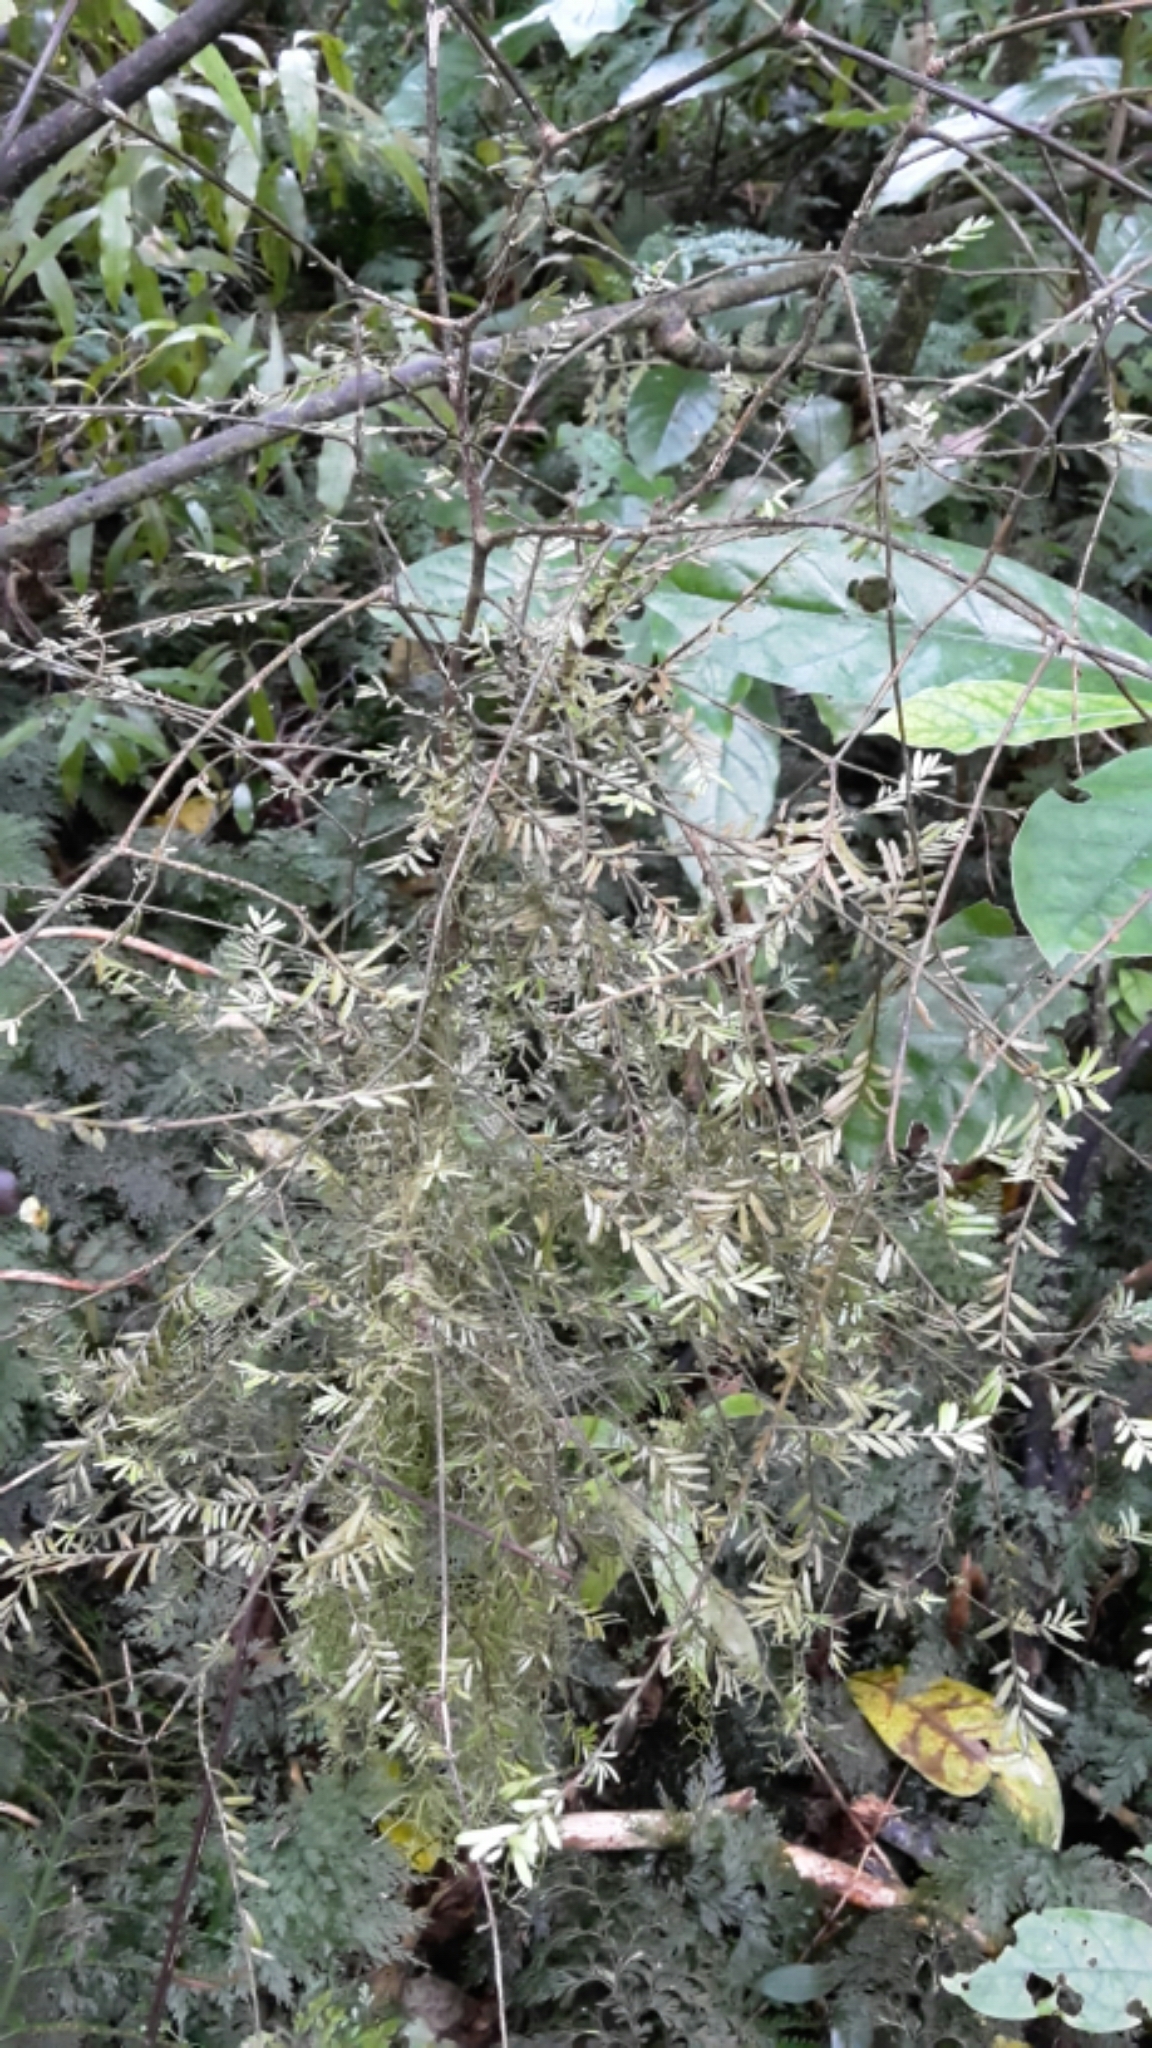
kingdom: Plantae
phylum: Tracheophyta
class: Pinopsida
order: Pinales
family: Podocarpaceae
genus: Prumnopitys
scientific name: Prumnopitys taxifolia
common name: Matai
